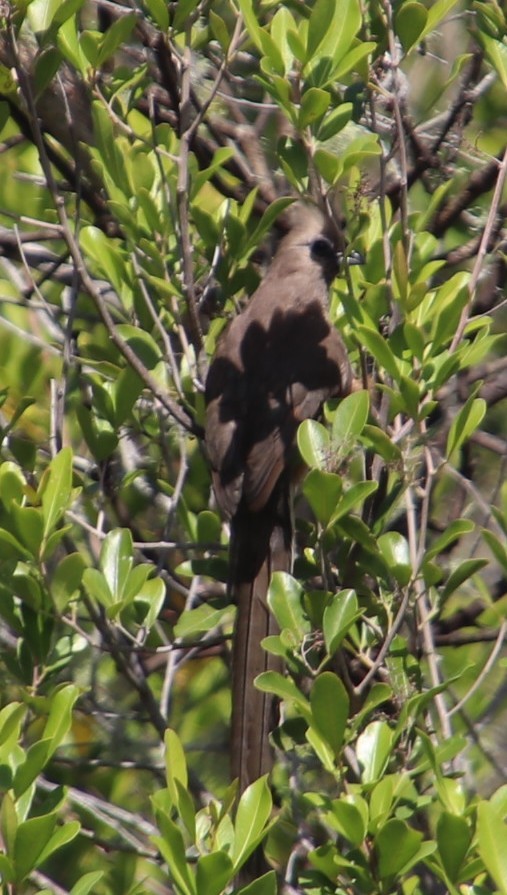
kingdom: Animalia
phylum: Chordata
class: Aves
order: Coliiformes
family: Coliidae
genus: Colius
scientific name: Colius striatus
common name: Speckled mousebird
